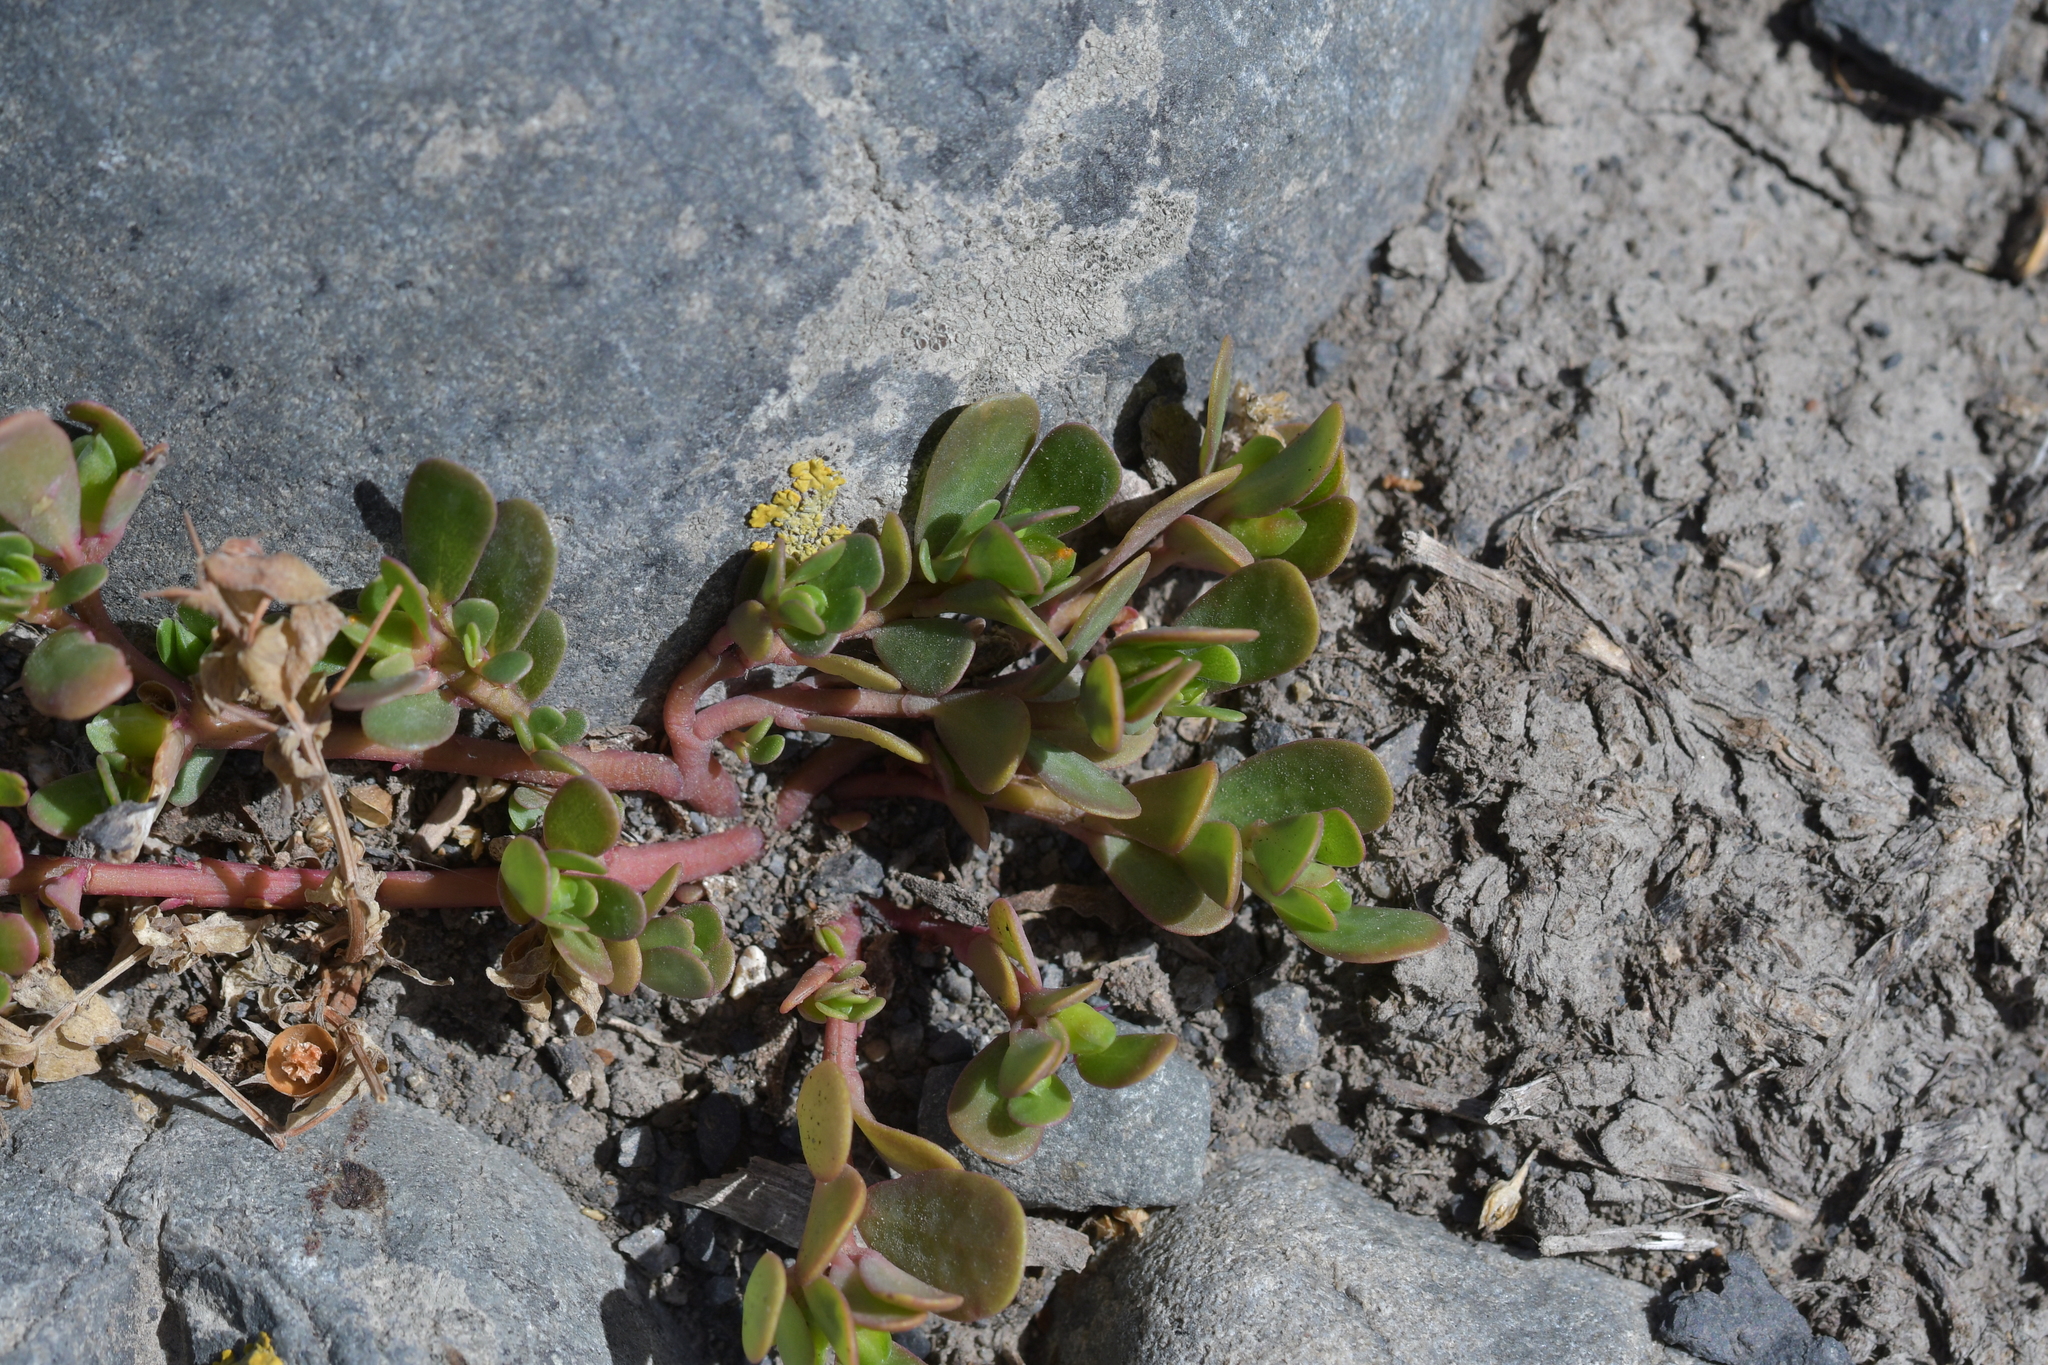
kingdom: Plantae
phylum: Tracheophyta
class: Magnoliopsida
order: Caryophyllales
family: Portulacaceae
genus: Portulaca
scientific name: Portulaca oleracea
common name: Common purslane
